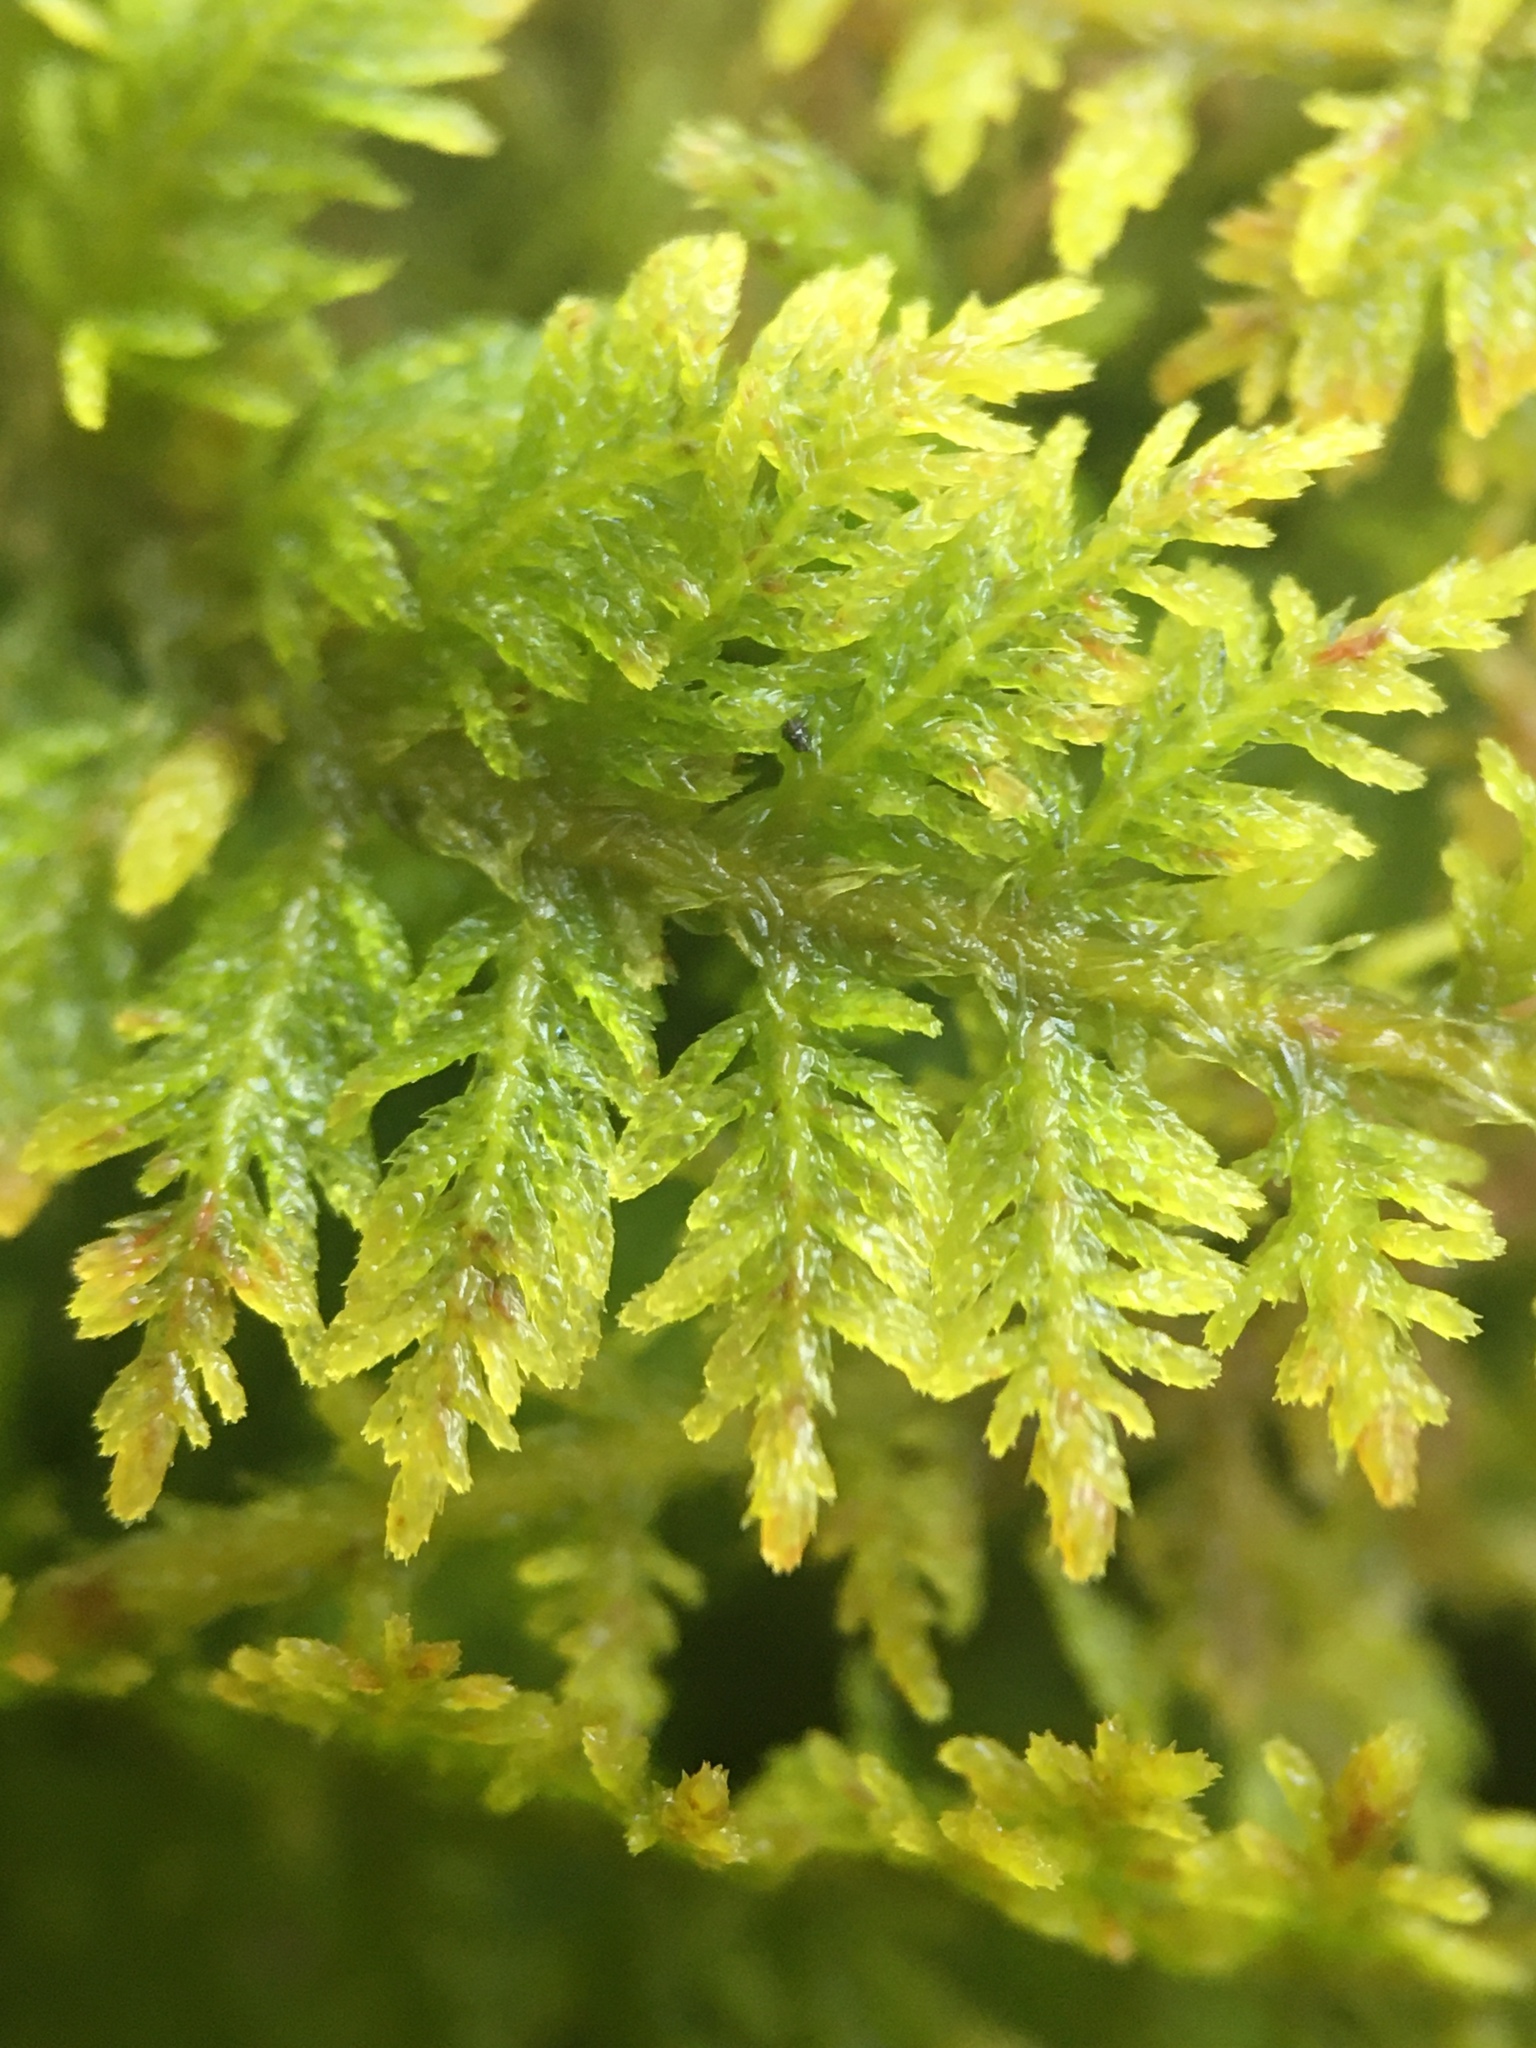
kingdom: Plantae
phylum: Bryophyta
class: Bryopsida
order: Hypnales
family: Thuidiaceae
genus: Thuidium
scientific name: Thuidium delicatulum
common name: Delicate fern moss
